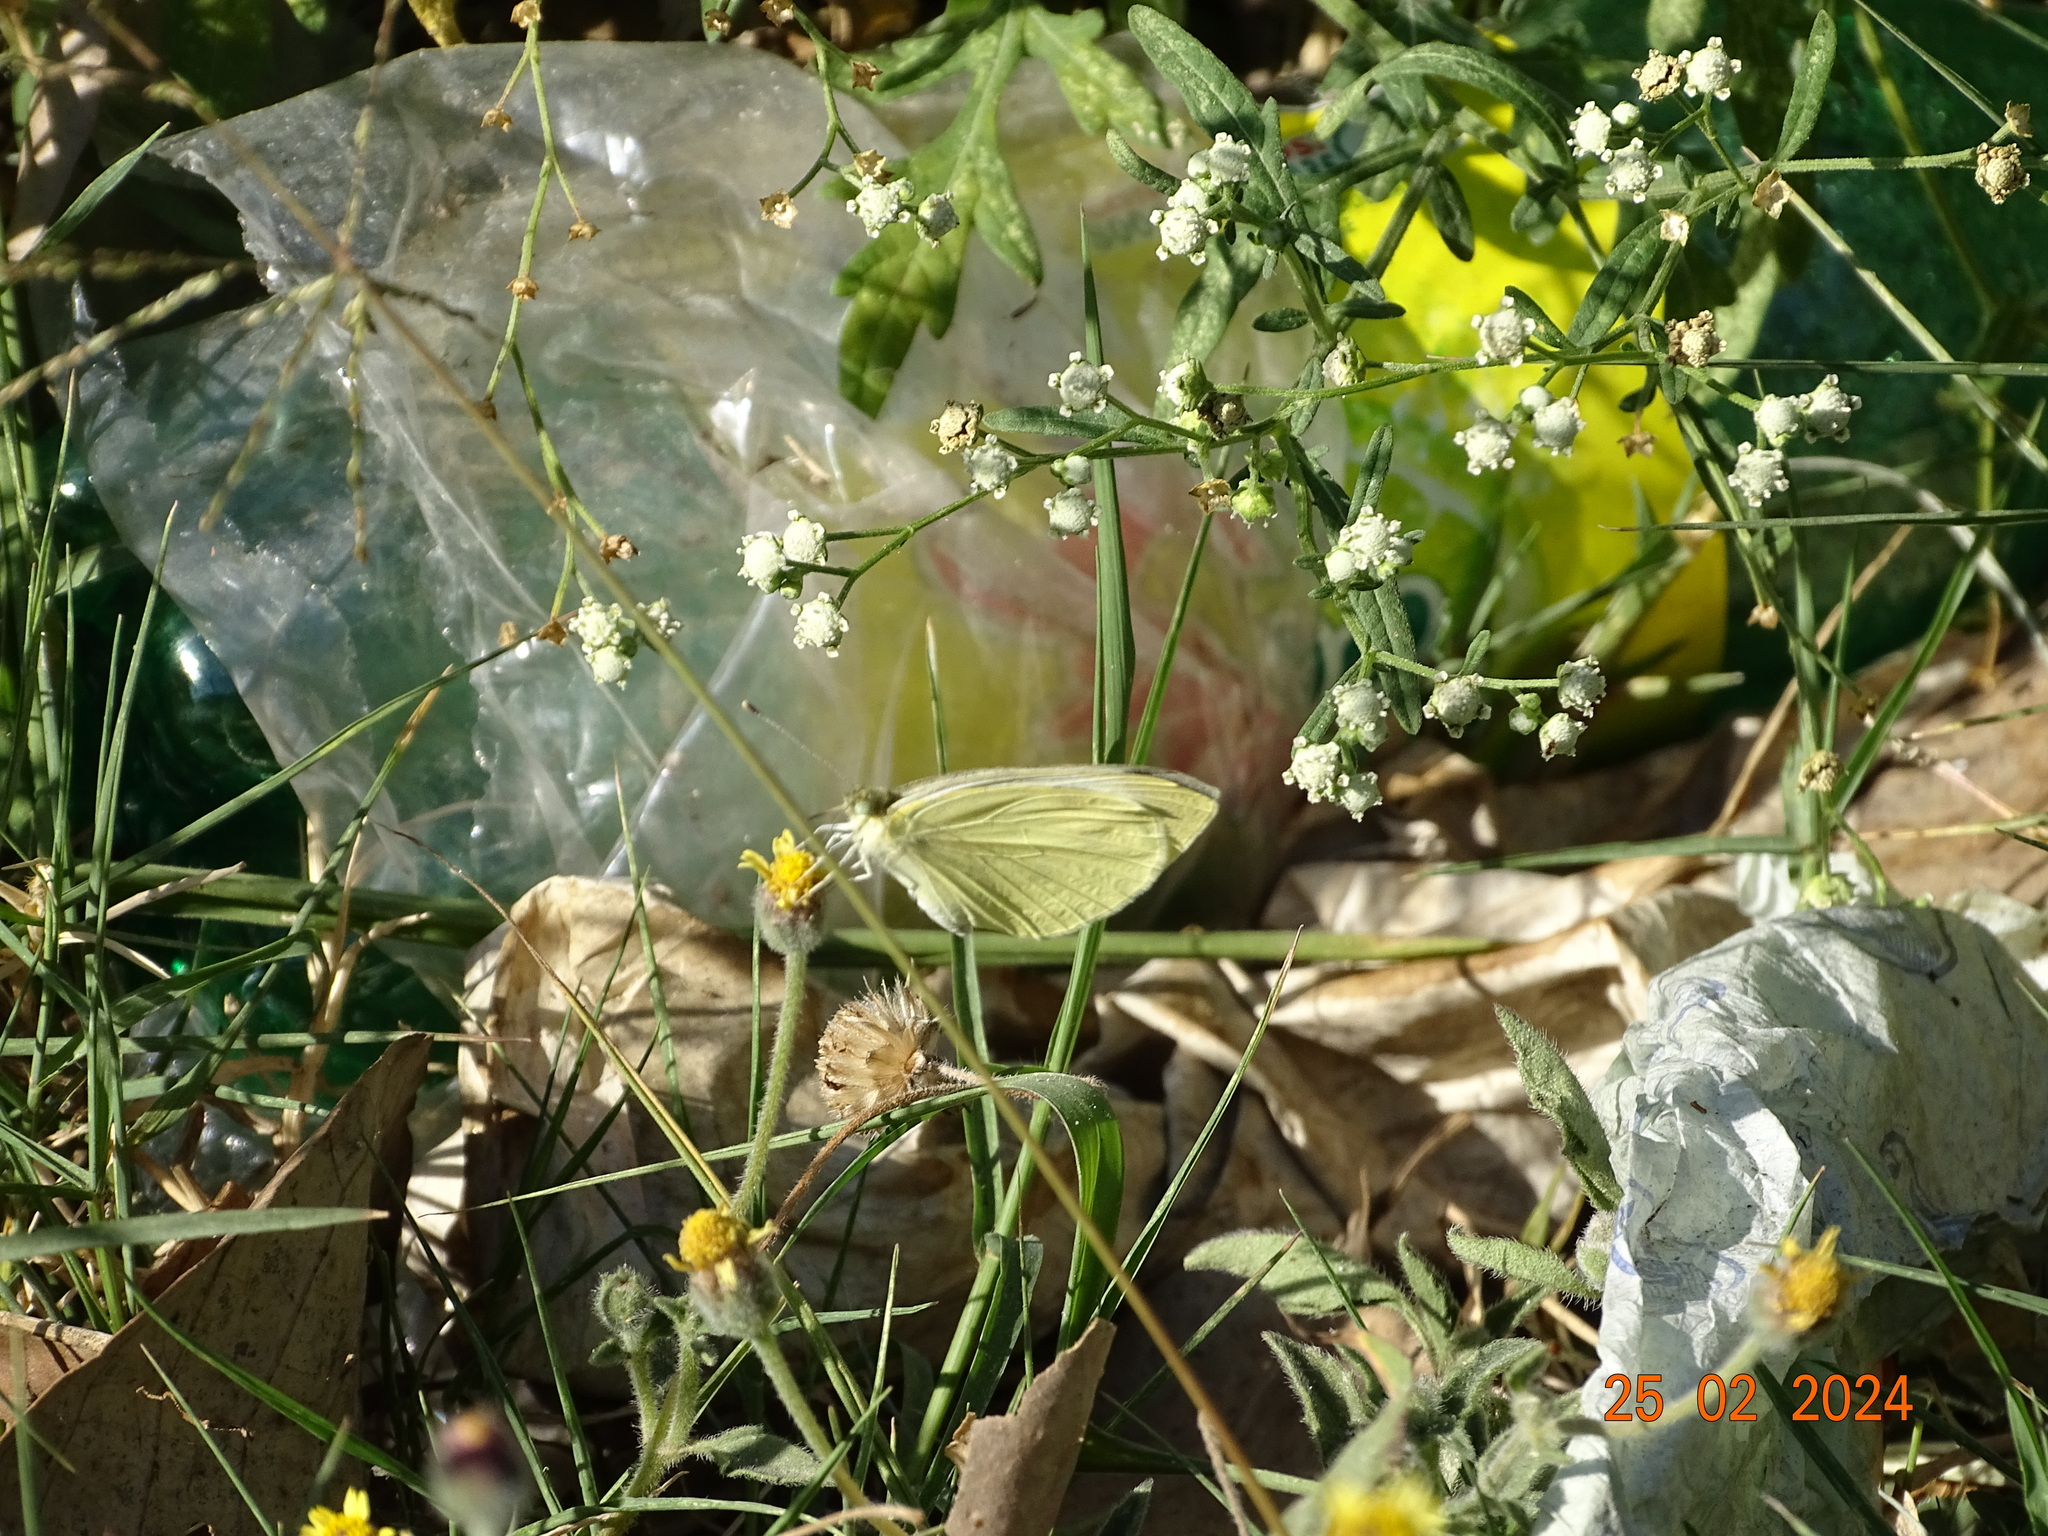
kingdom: Animalia
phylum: Arthropoda
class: Insecta
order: Lepidoptera
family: Pieridae
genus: Pieris
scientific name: Pieris rapae
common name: Small white
